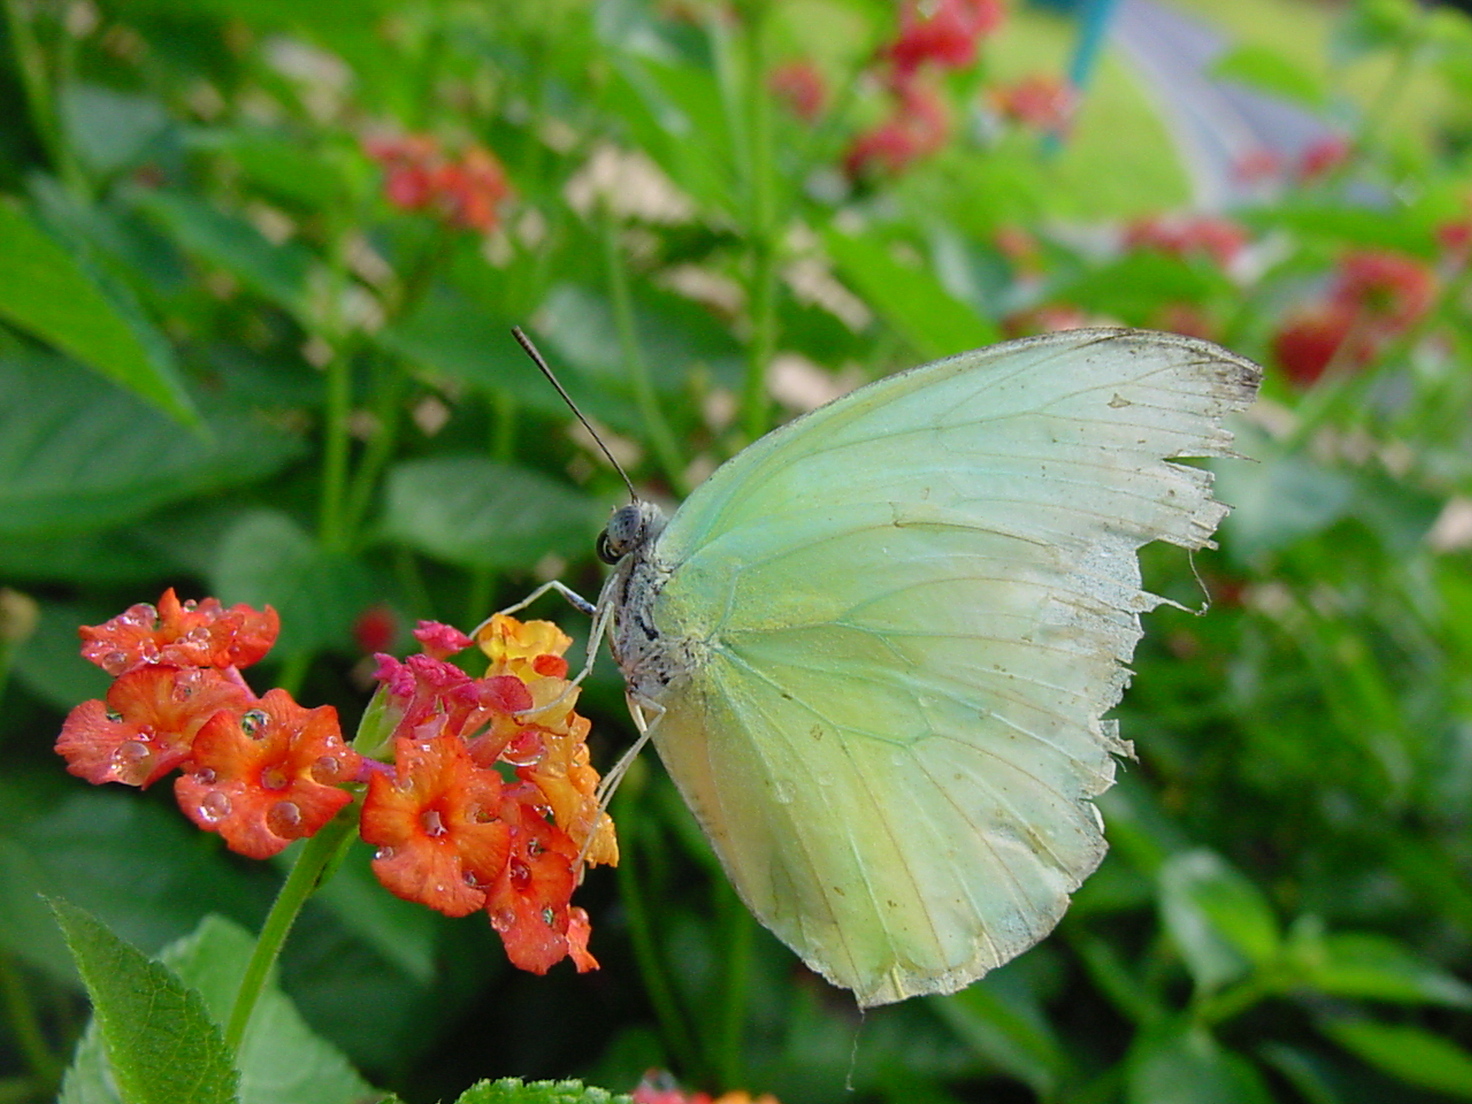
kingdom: Animalia
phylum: Arthropoda
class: Insecta
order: Lepidoptera
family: Pieridae
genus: Catopsilia
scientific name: Catopsilia pomona
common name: Common emigrant
